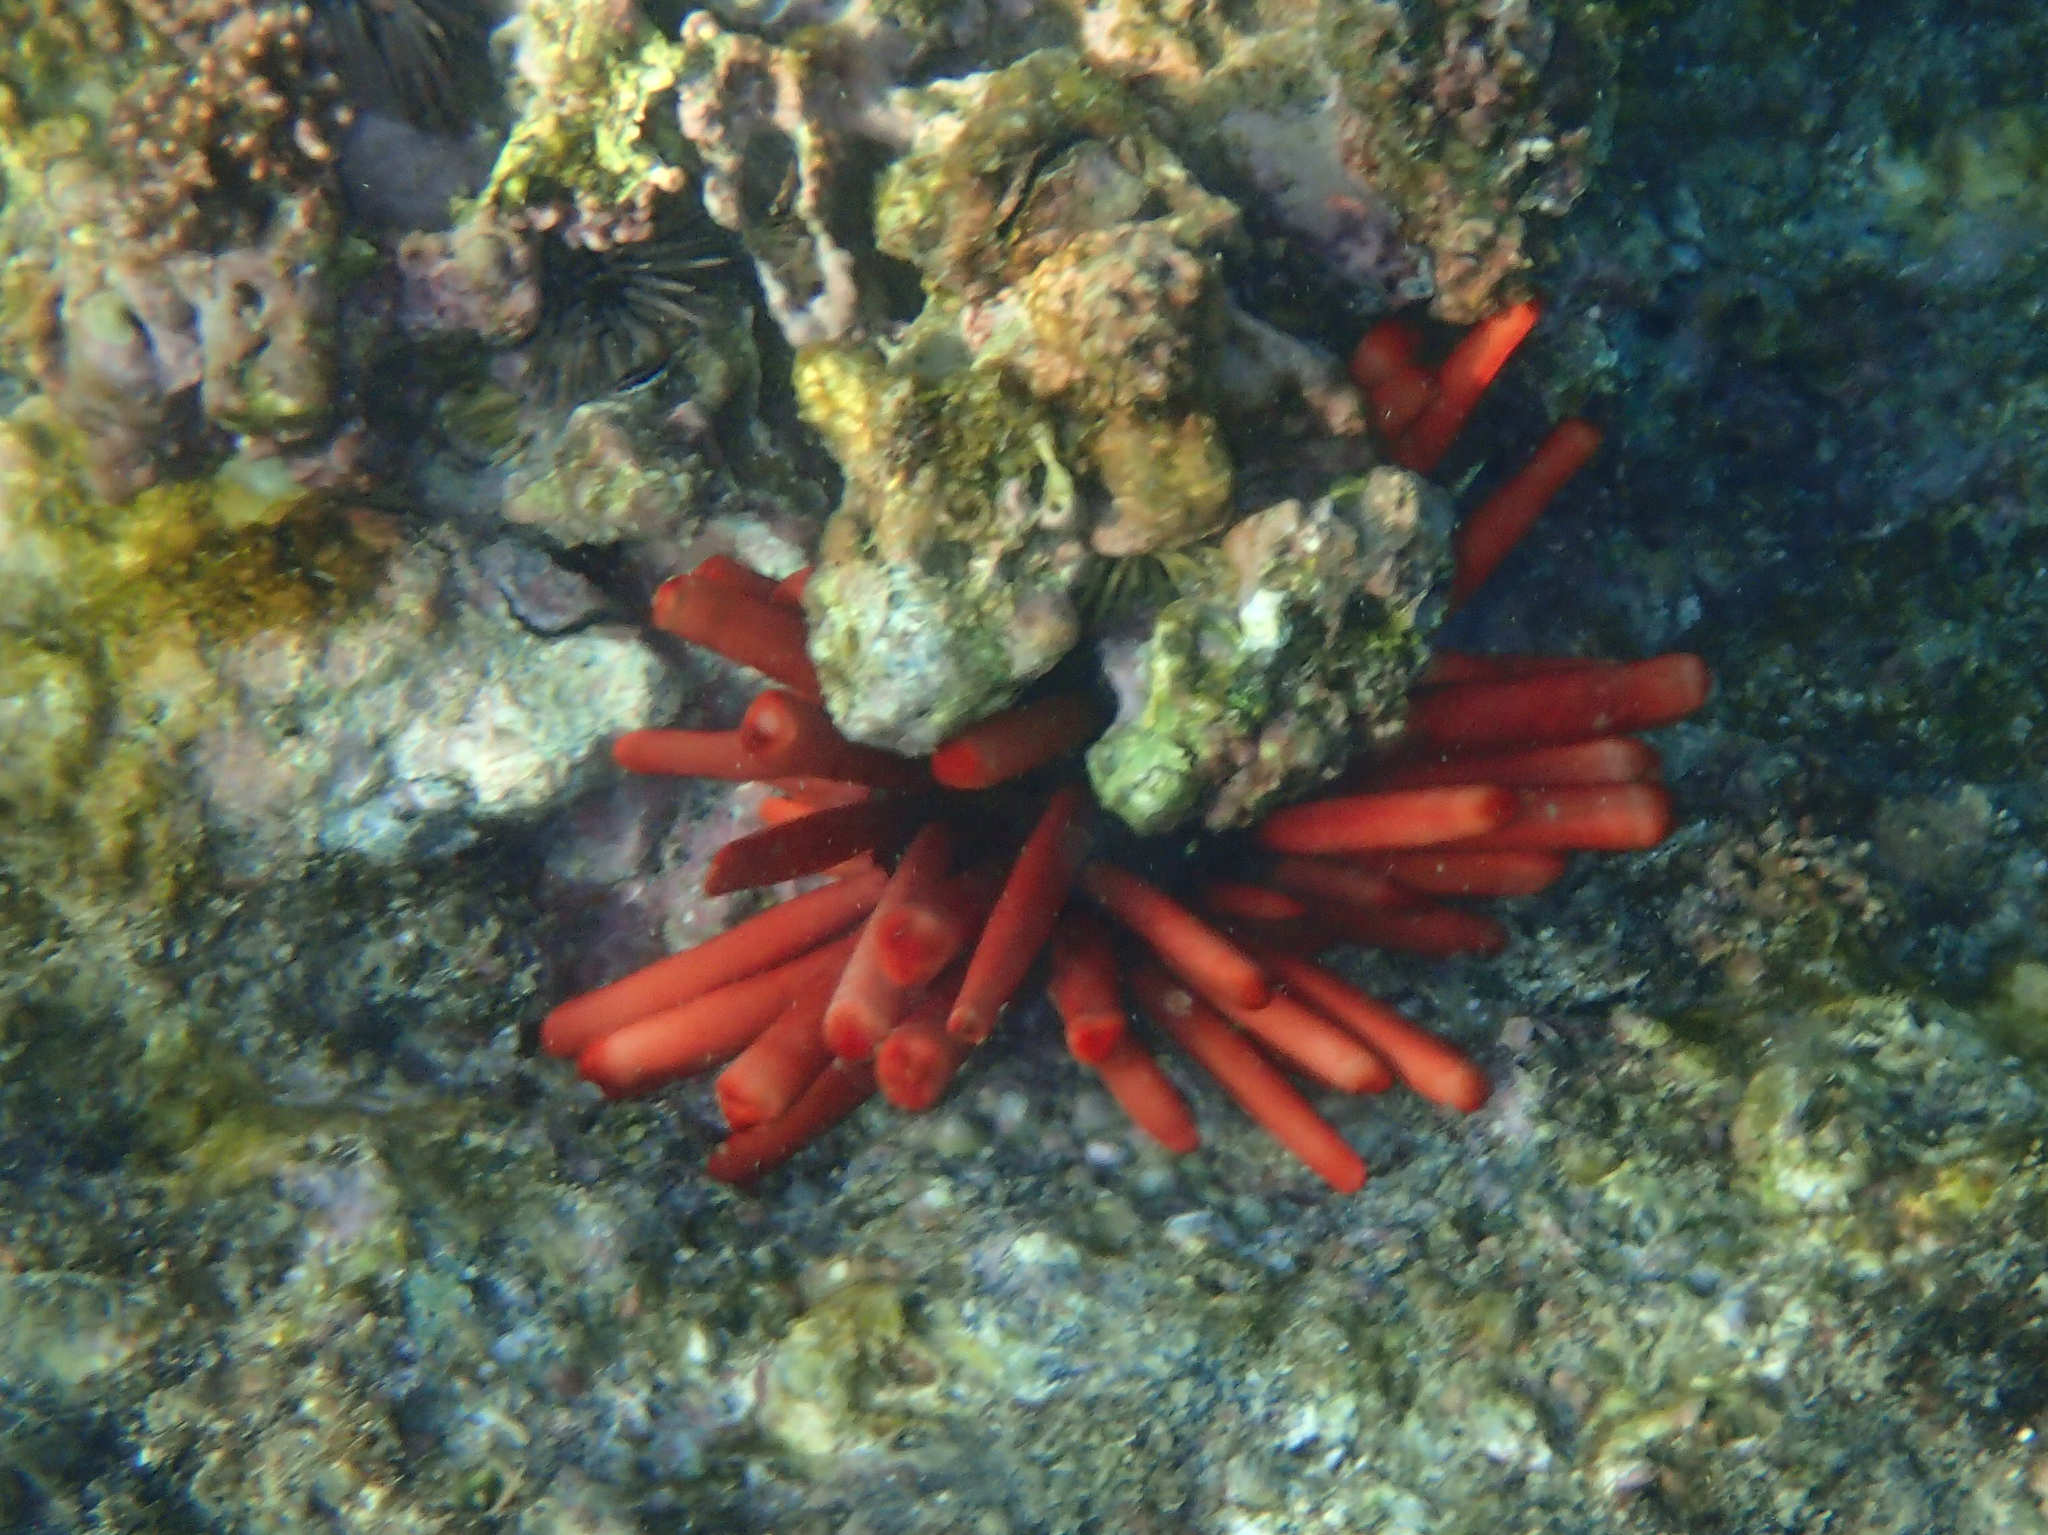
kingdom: Animalia
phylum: Echinodermata
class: Echinoidea
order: Camarodonta
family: Echinometridae
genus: Heterocentrotus
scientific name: Heterocentrotus mamillatus
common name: Slate pencil urchin
